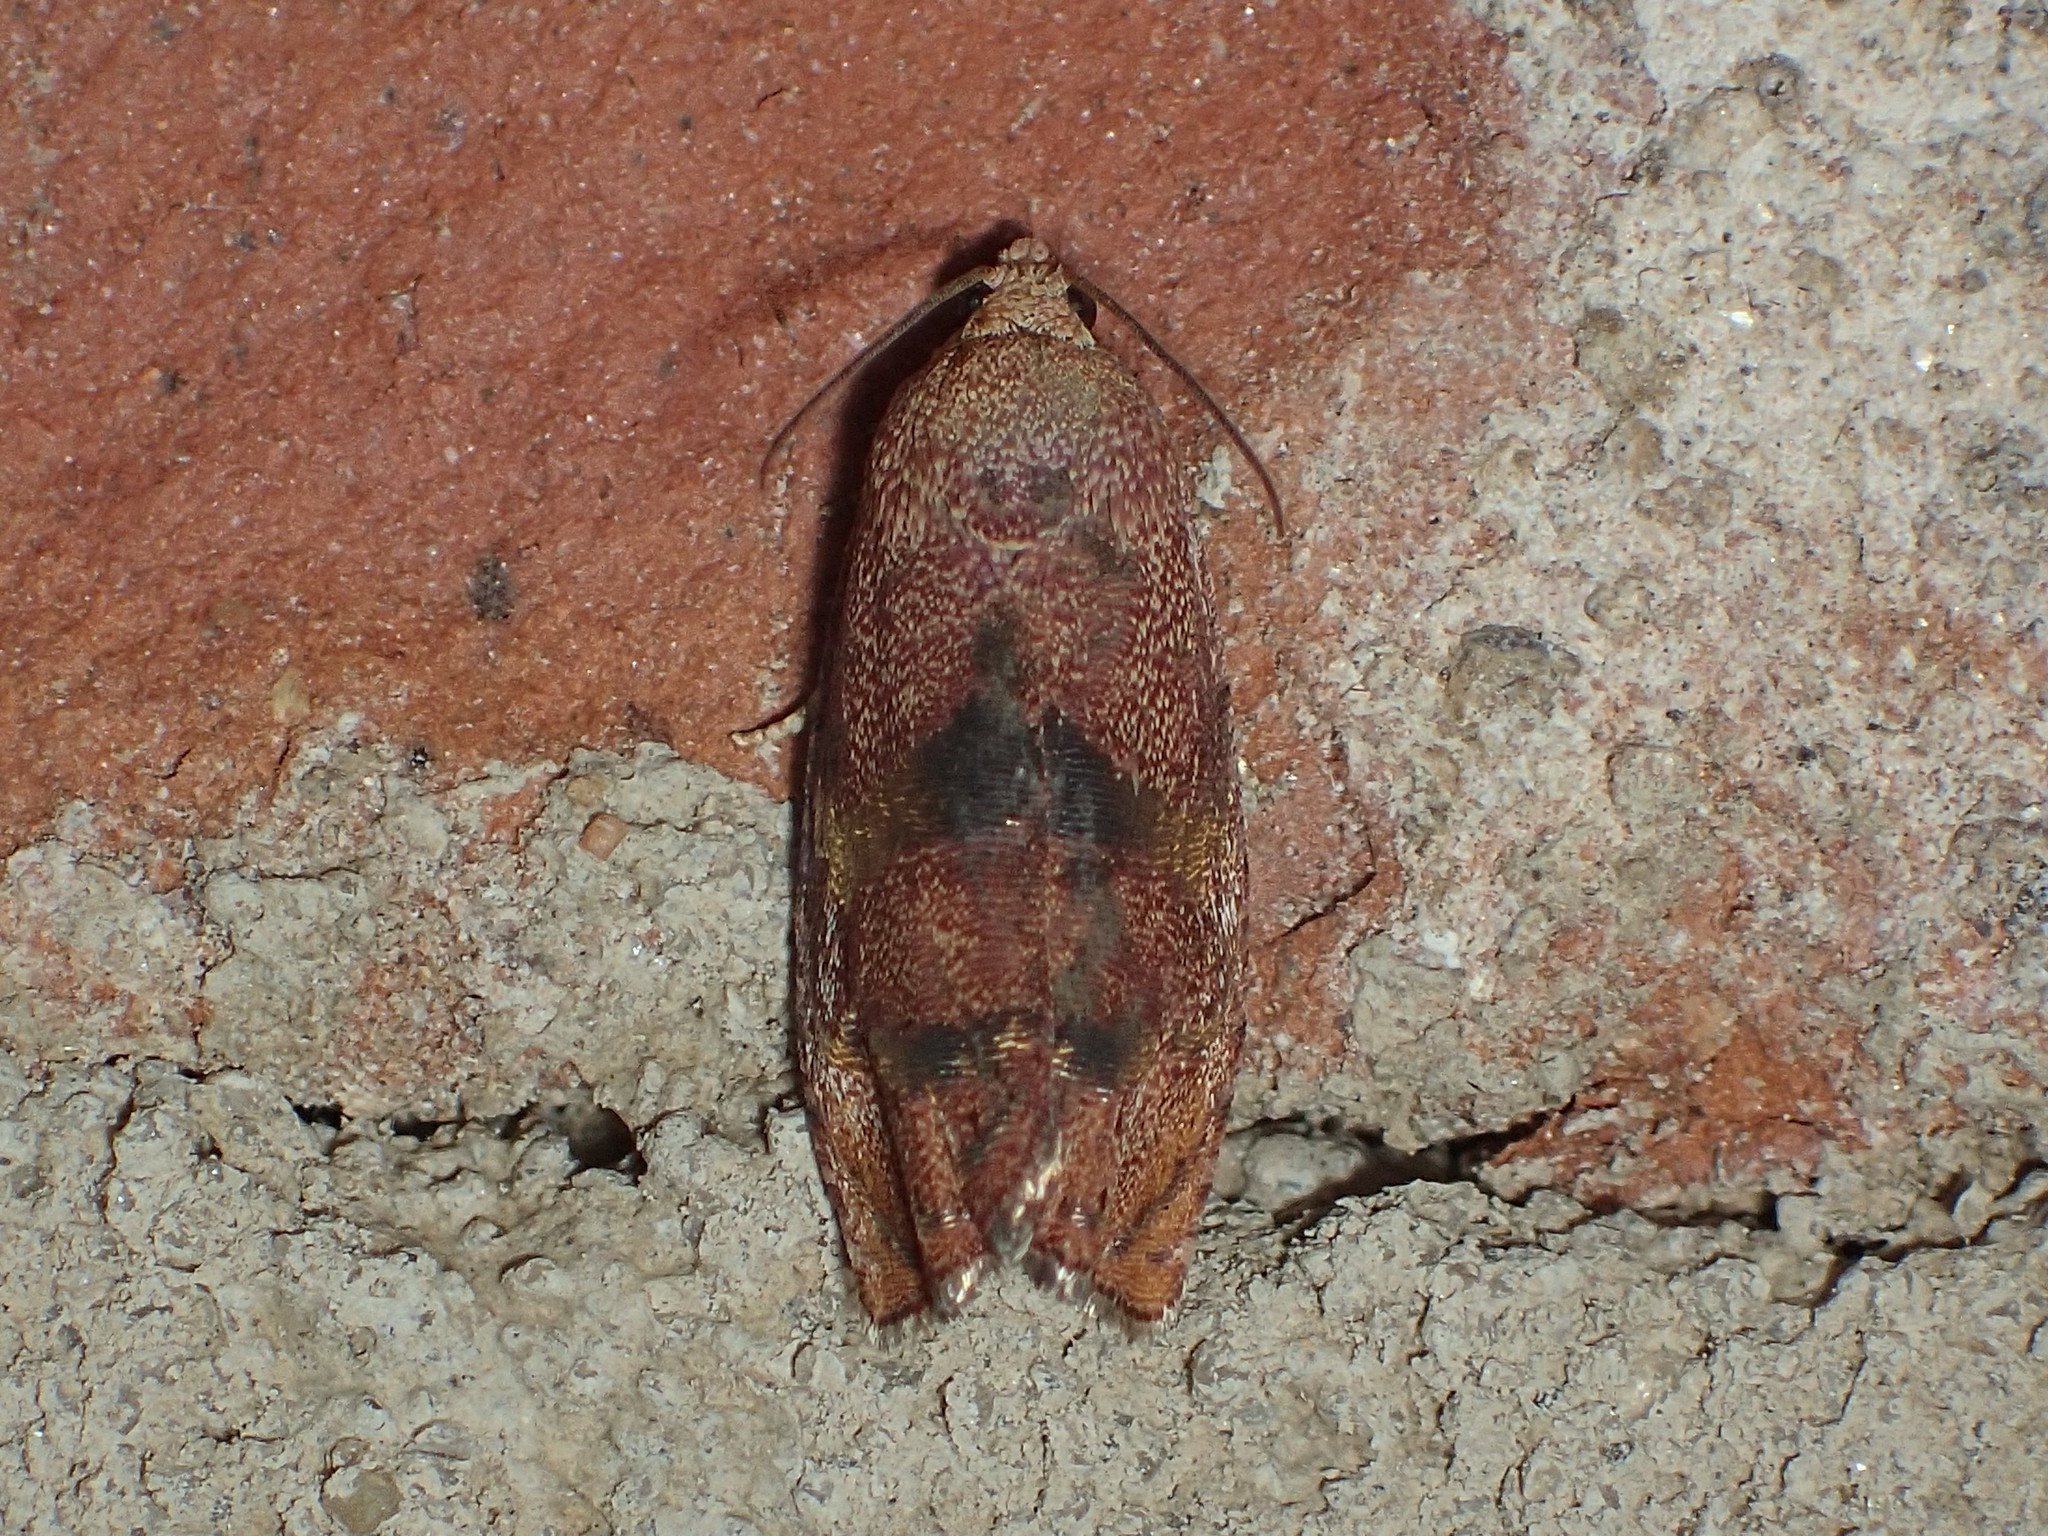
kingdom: Animalia
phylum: Arthropoda
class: Insecta
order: Lepidoptera
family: Tortricidae
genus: Cydia
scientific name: Cydia latiferreana
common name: Filbertworm moth
